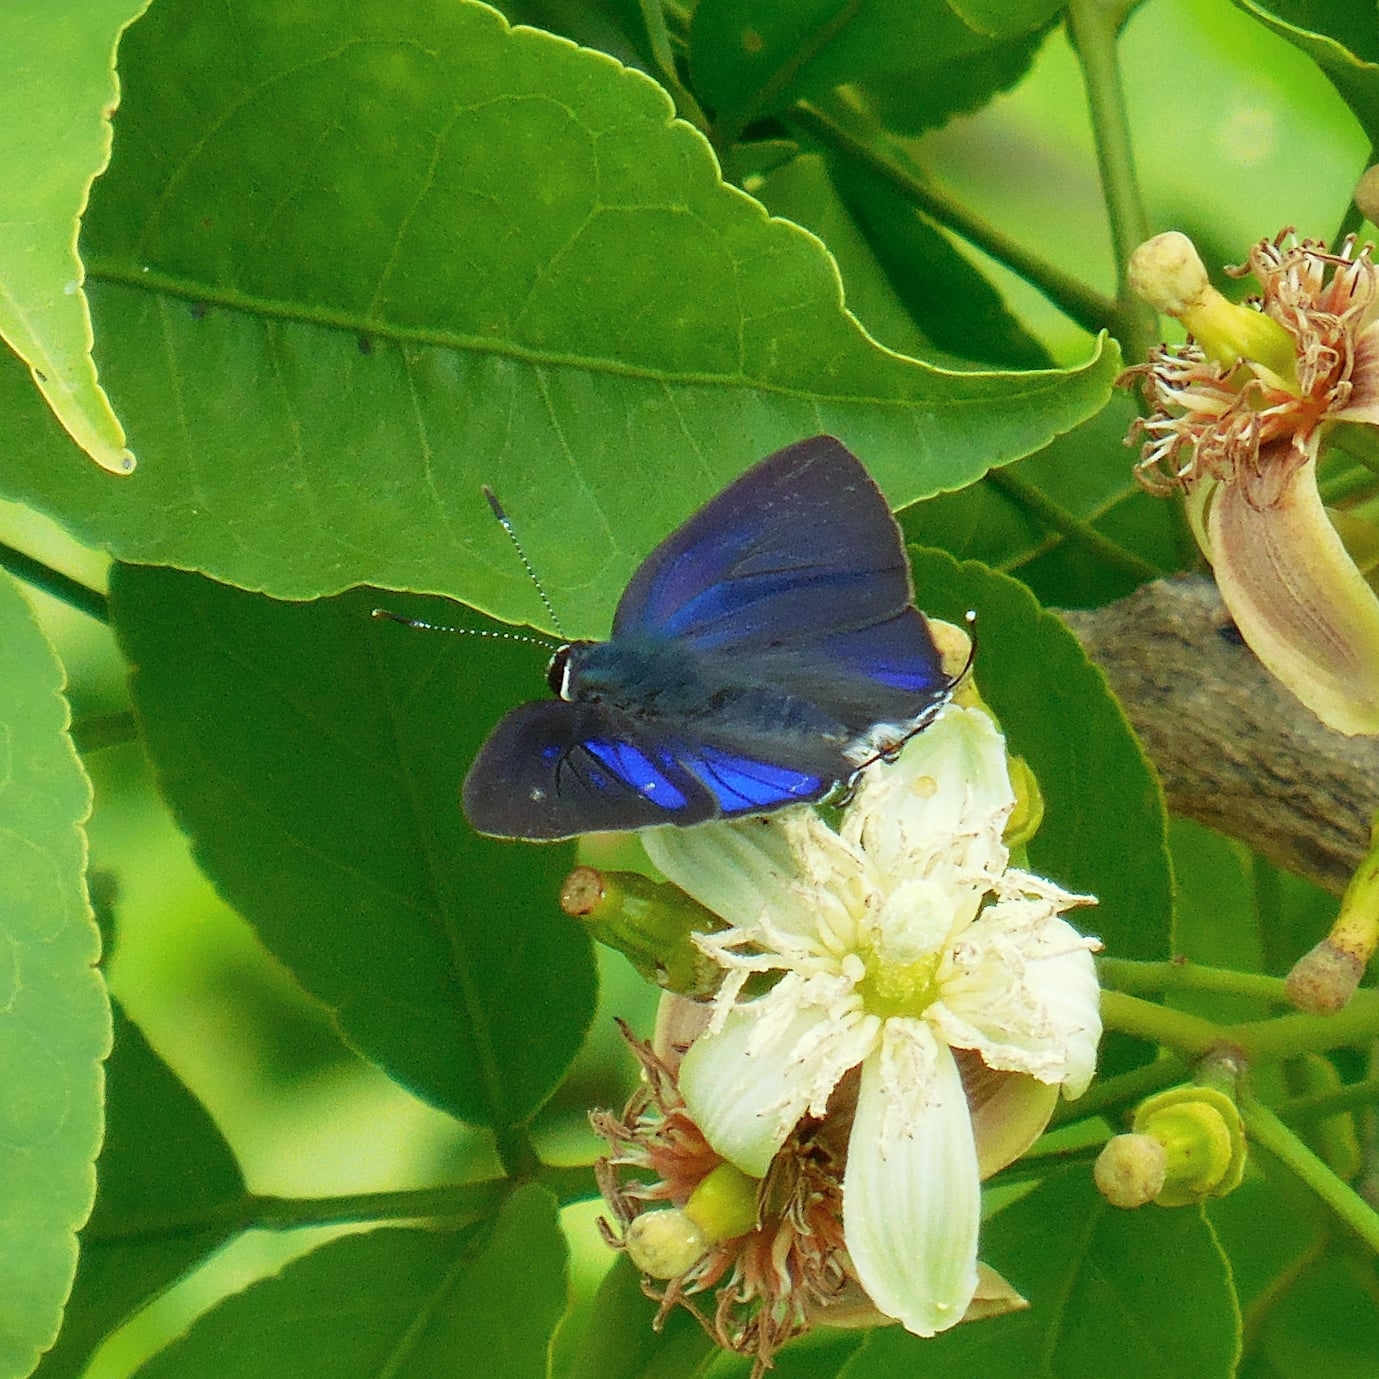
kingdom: Animalia
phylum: Arthropoda
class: Insecta
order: Lepidoptera
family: Lycaenidae
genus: Hypolycaena
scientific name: Hypolycaena erylus
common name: Common tit
